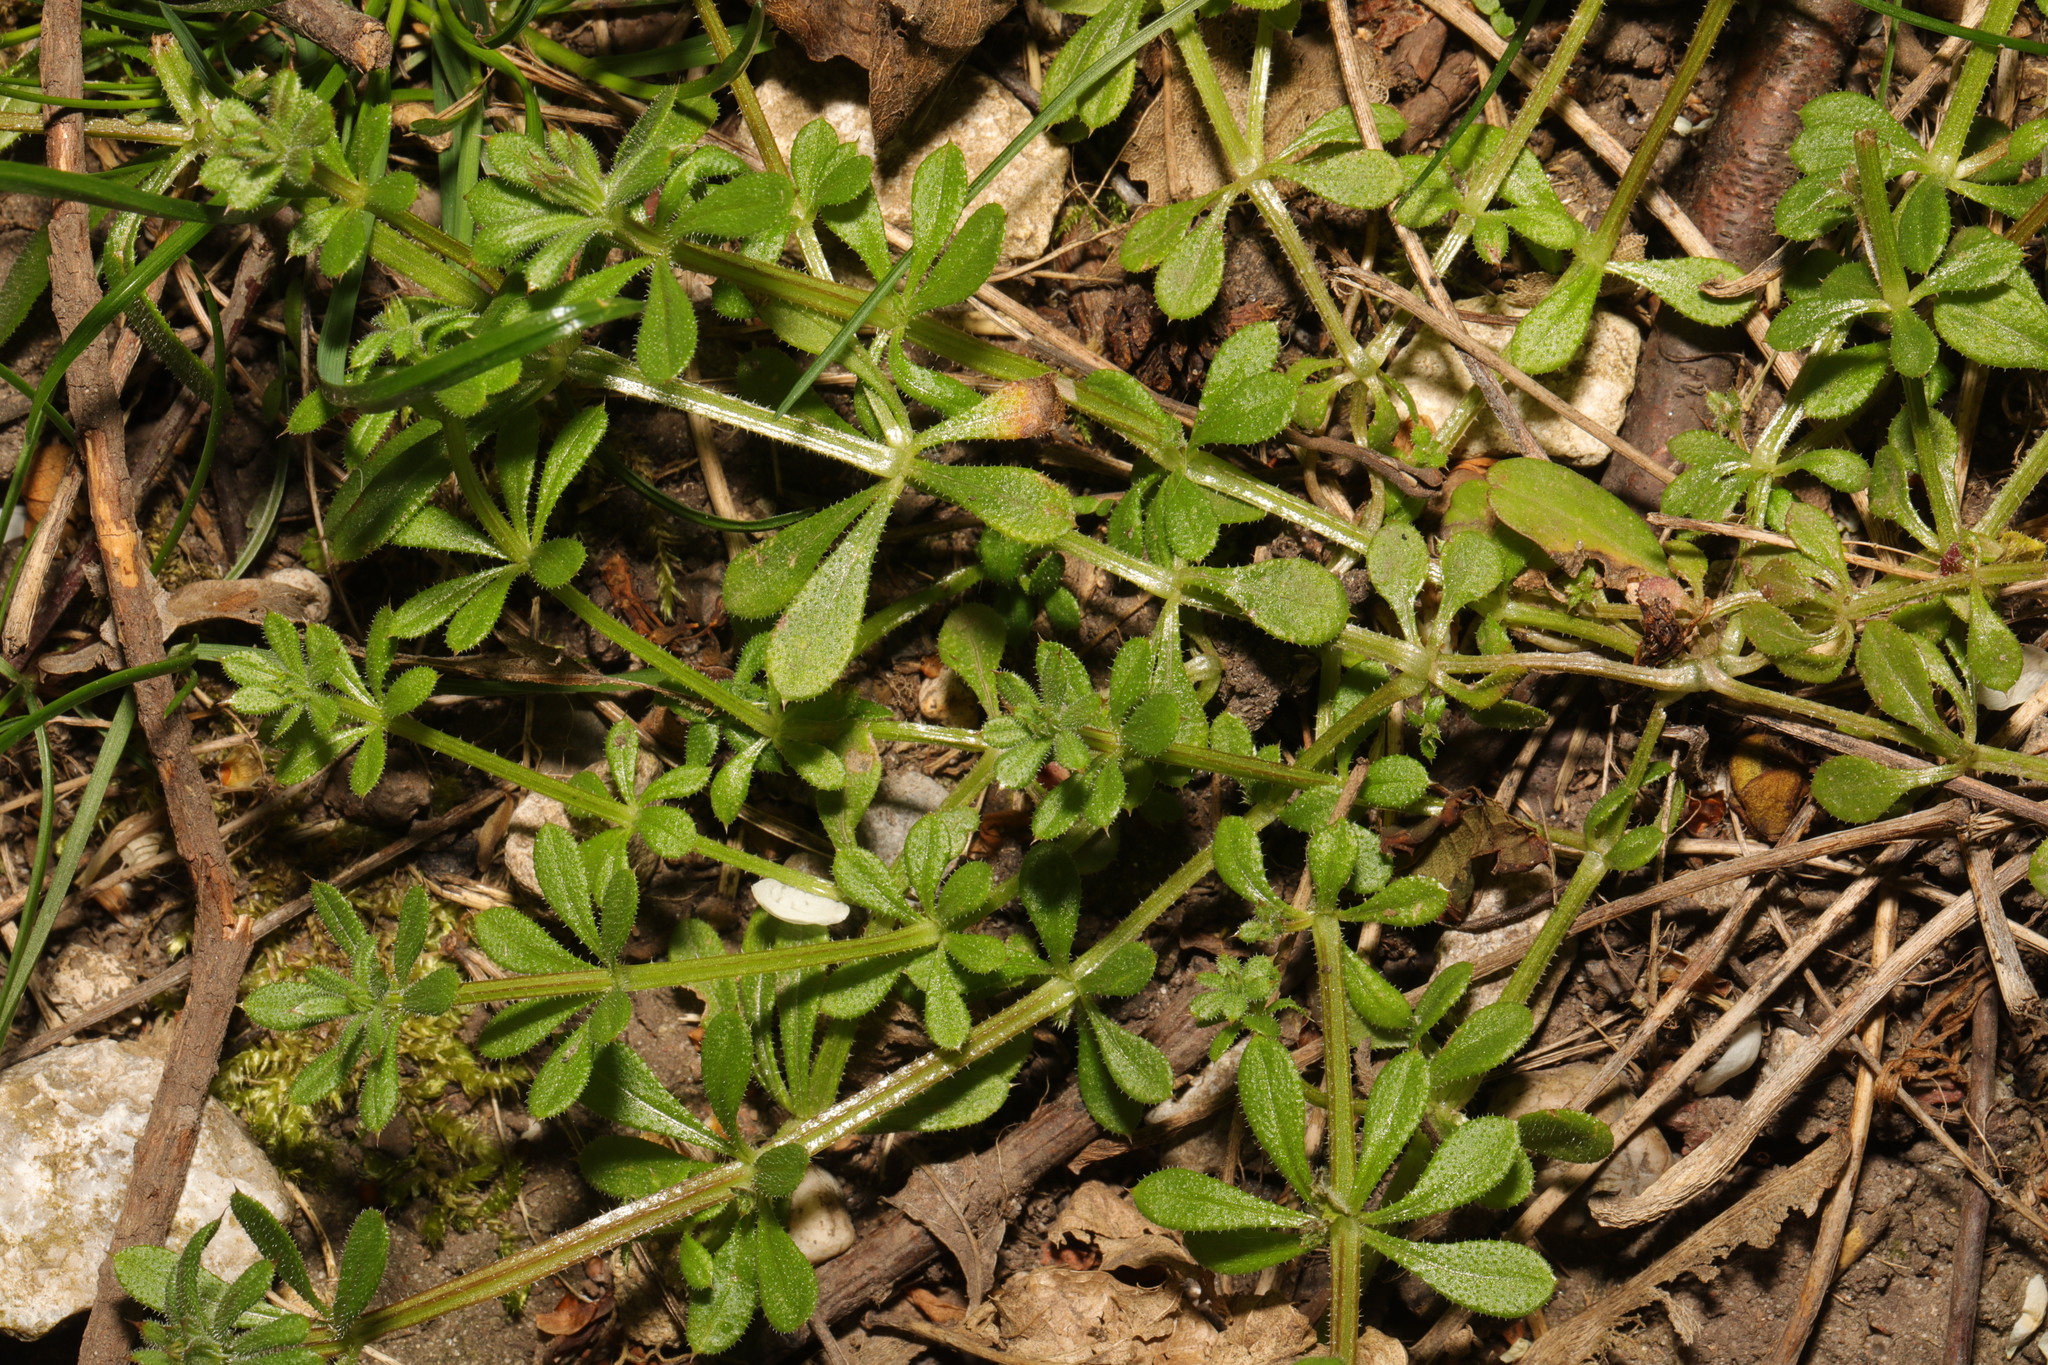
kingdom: Plantae
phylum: Tracheophyta
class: Magnoliopsida
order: Gentianales
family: Rubiaceae
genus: Galium
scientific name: Galium aparine
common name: Cleavers
